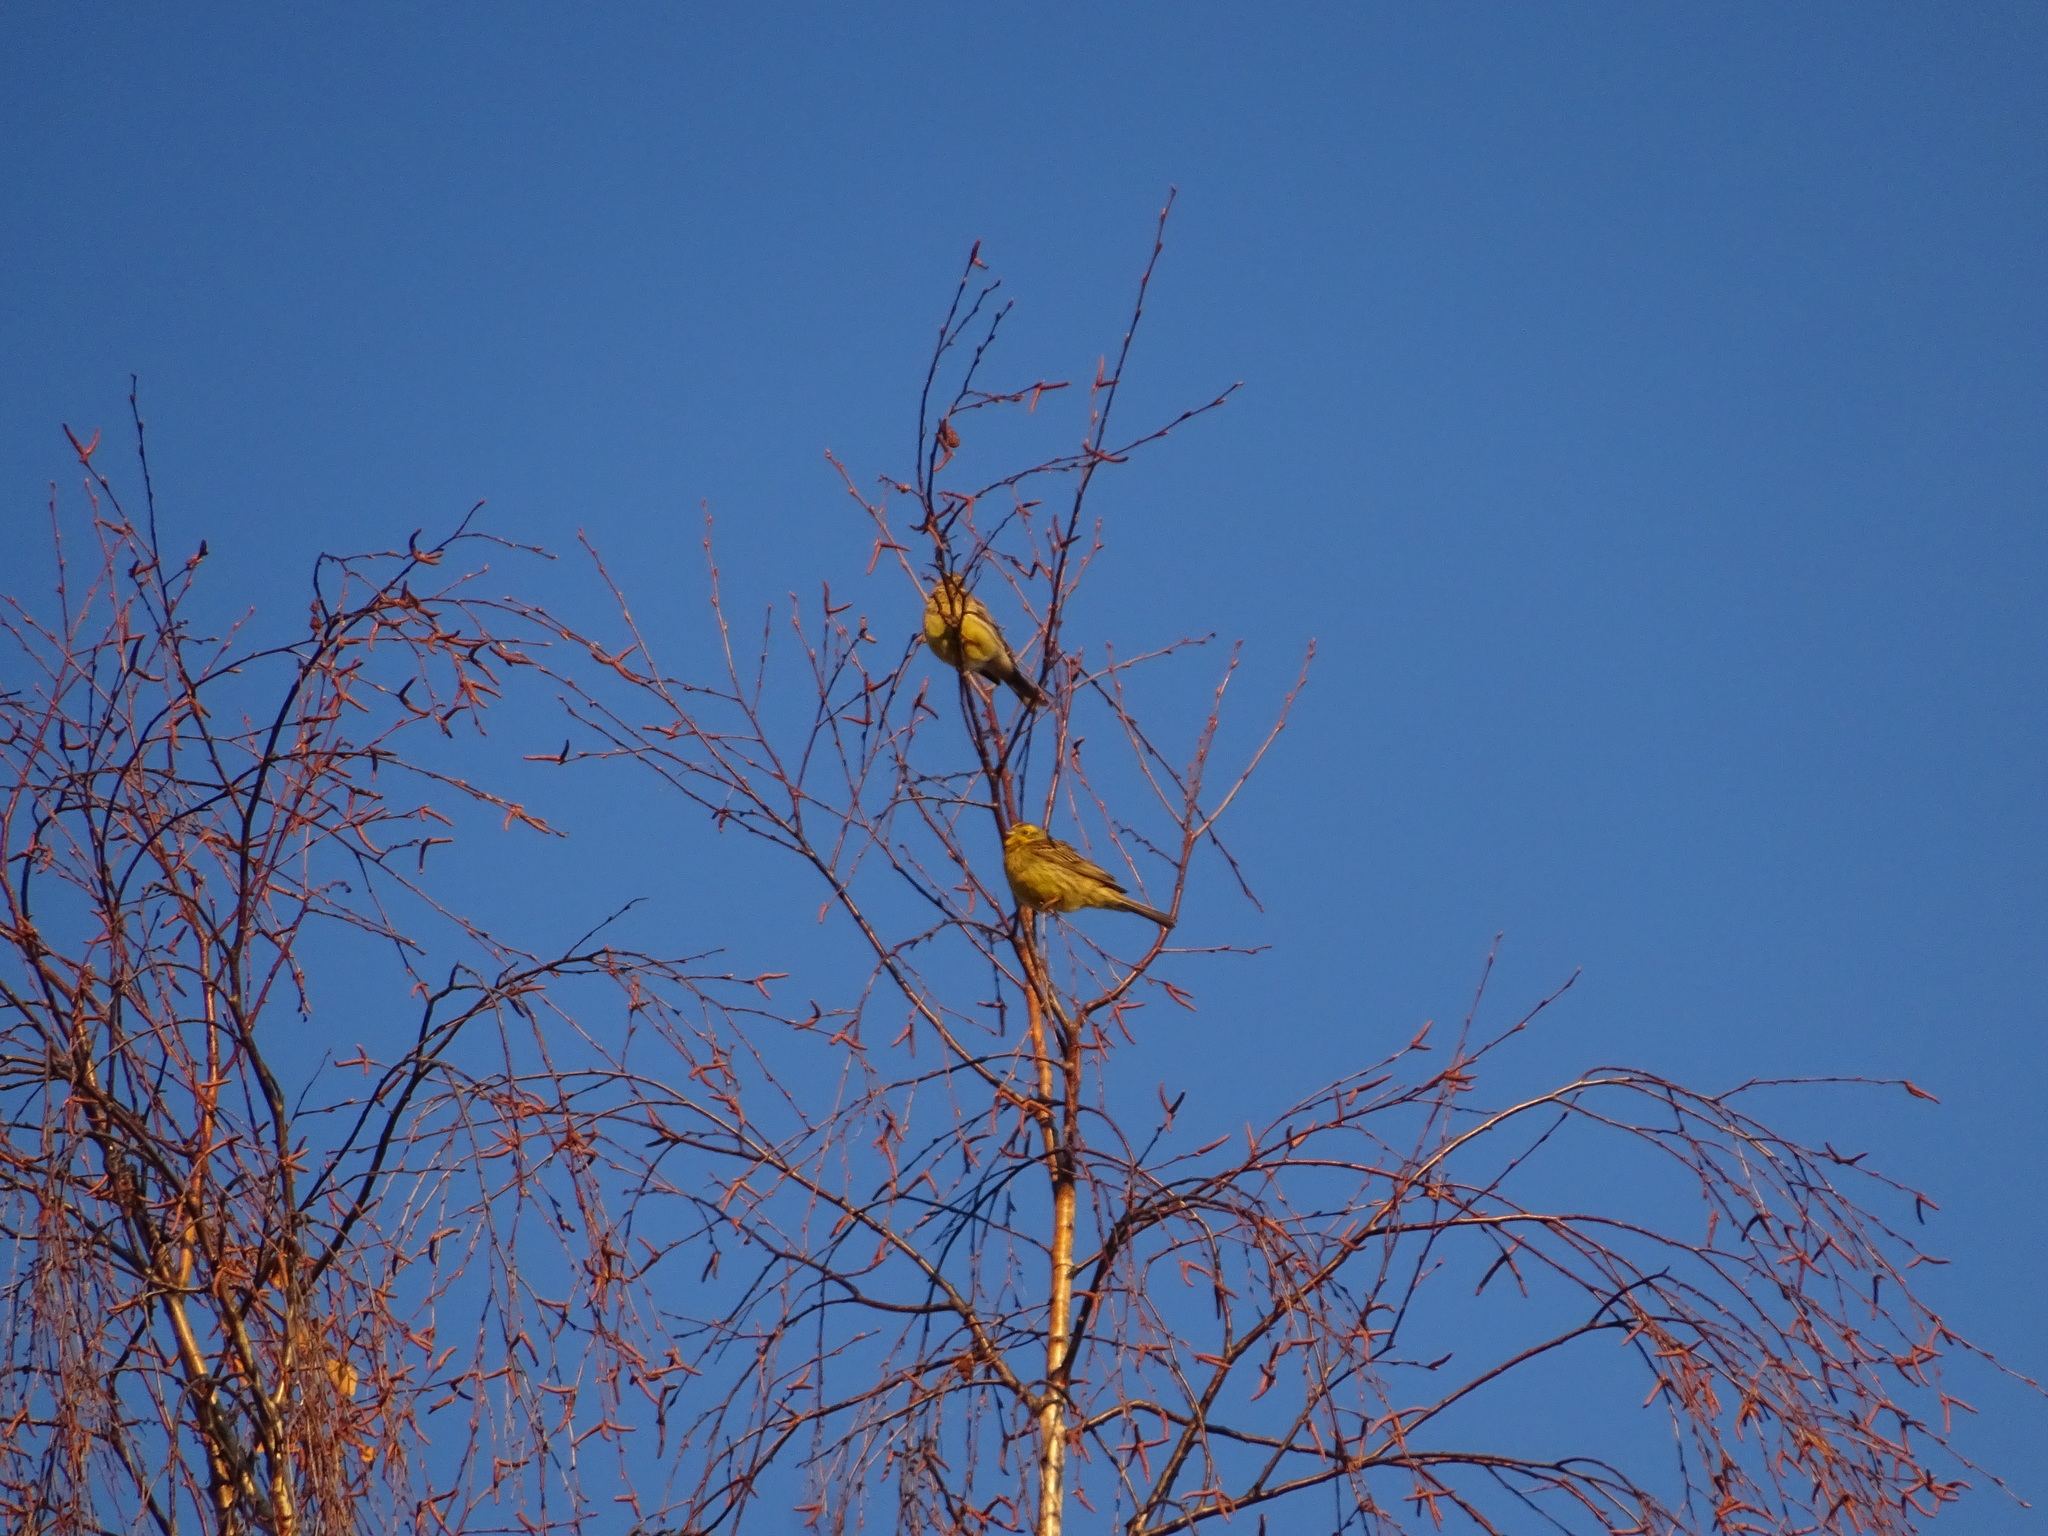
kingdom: Animalia
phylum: Chordata
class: Aves
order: Passeriformes
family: Emberizidae
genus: Emberiza
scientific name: Emberiza citrinella
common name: Yellowhammer
